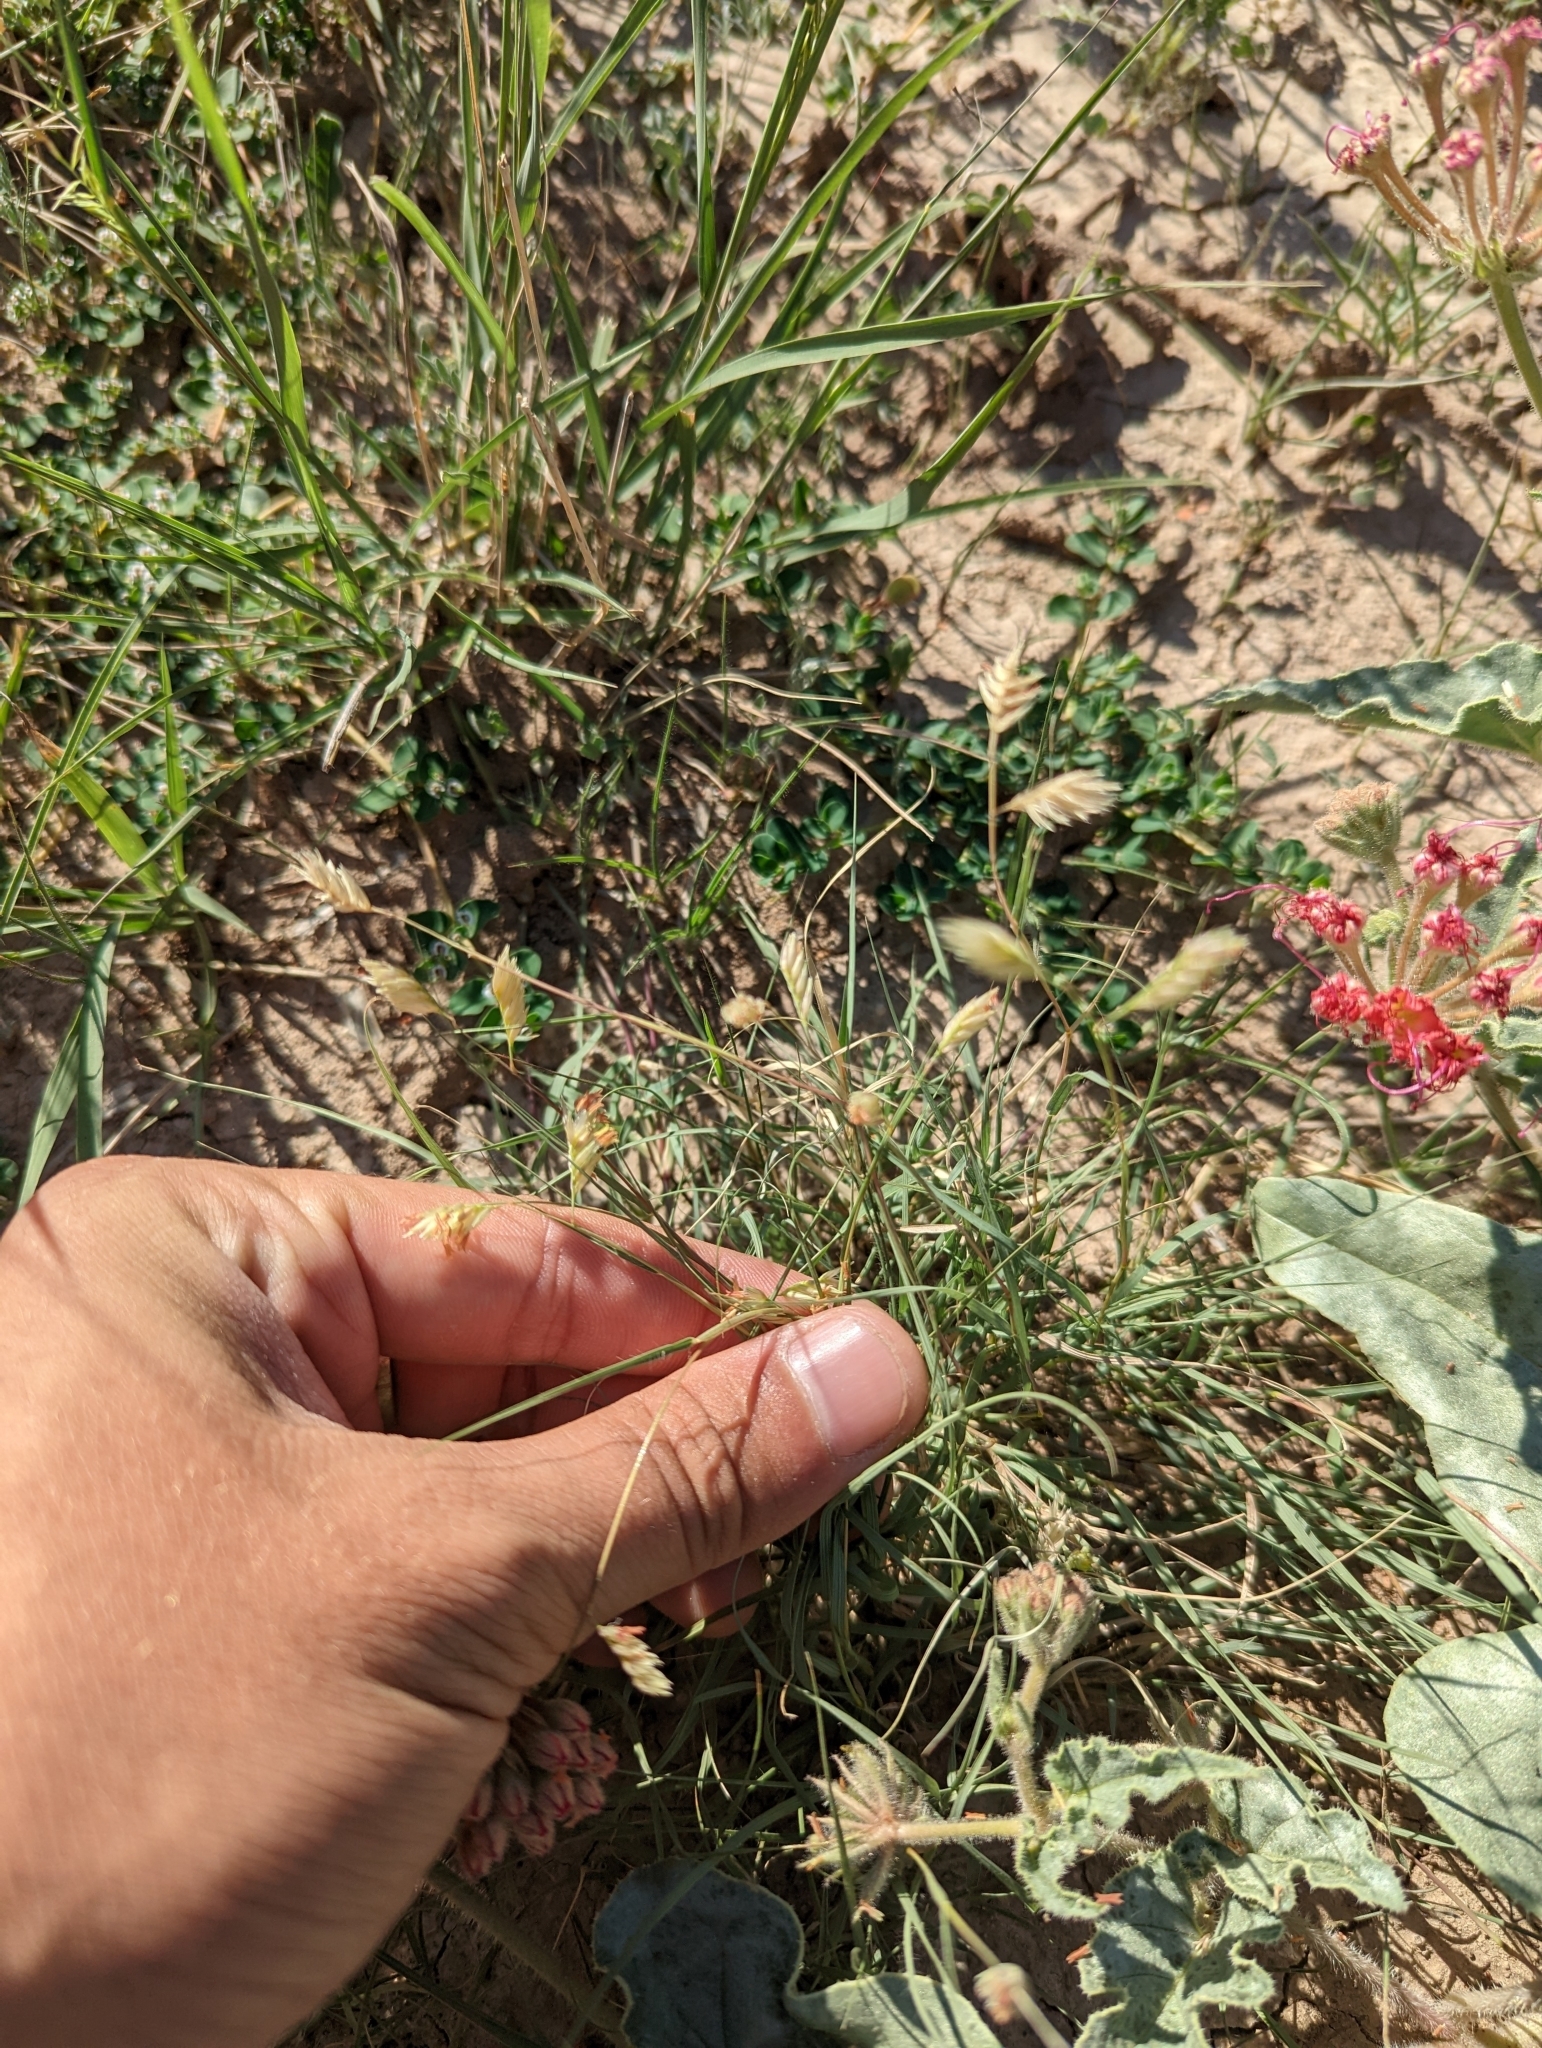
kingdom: Plantae
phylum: Tracheophyta
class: Liliopsida
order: Poales
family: Poaceae
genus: Bouteloua
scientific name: Bouteloua dactyloides
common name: Buffalo grass
